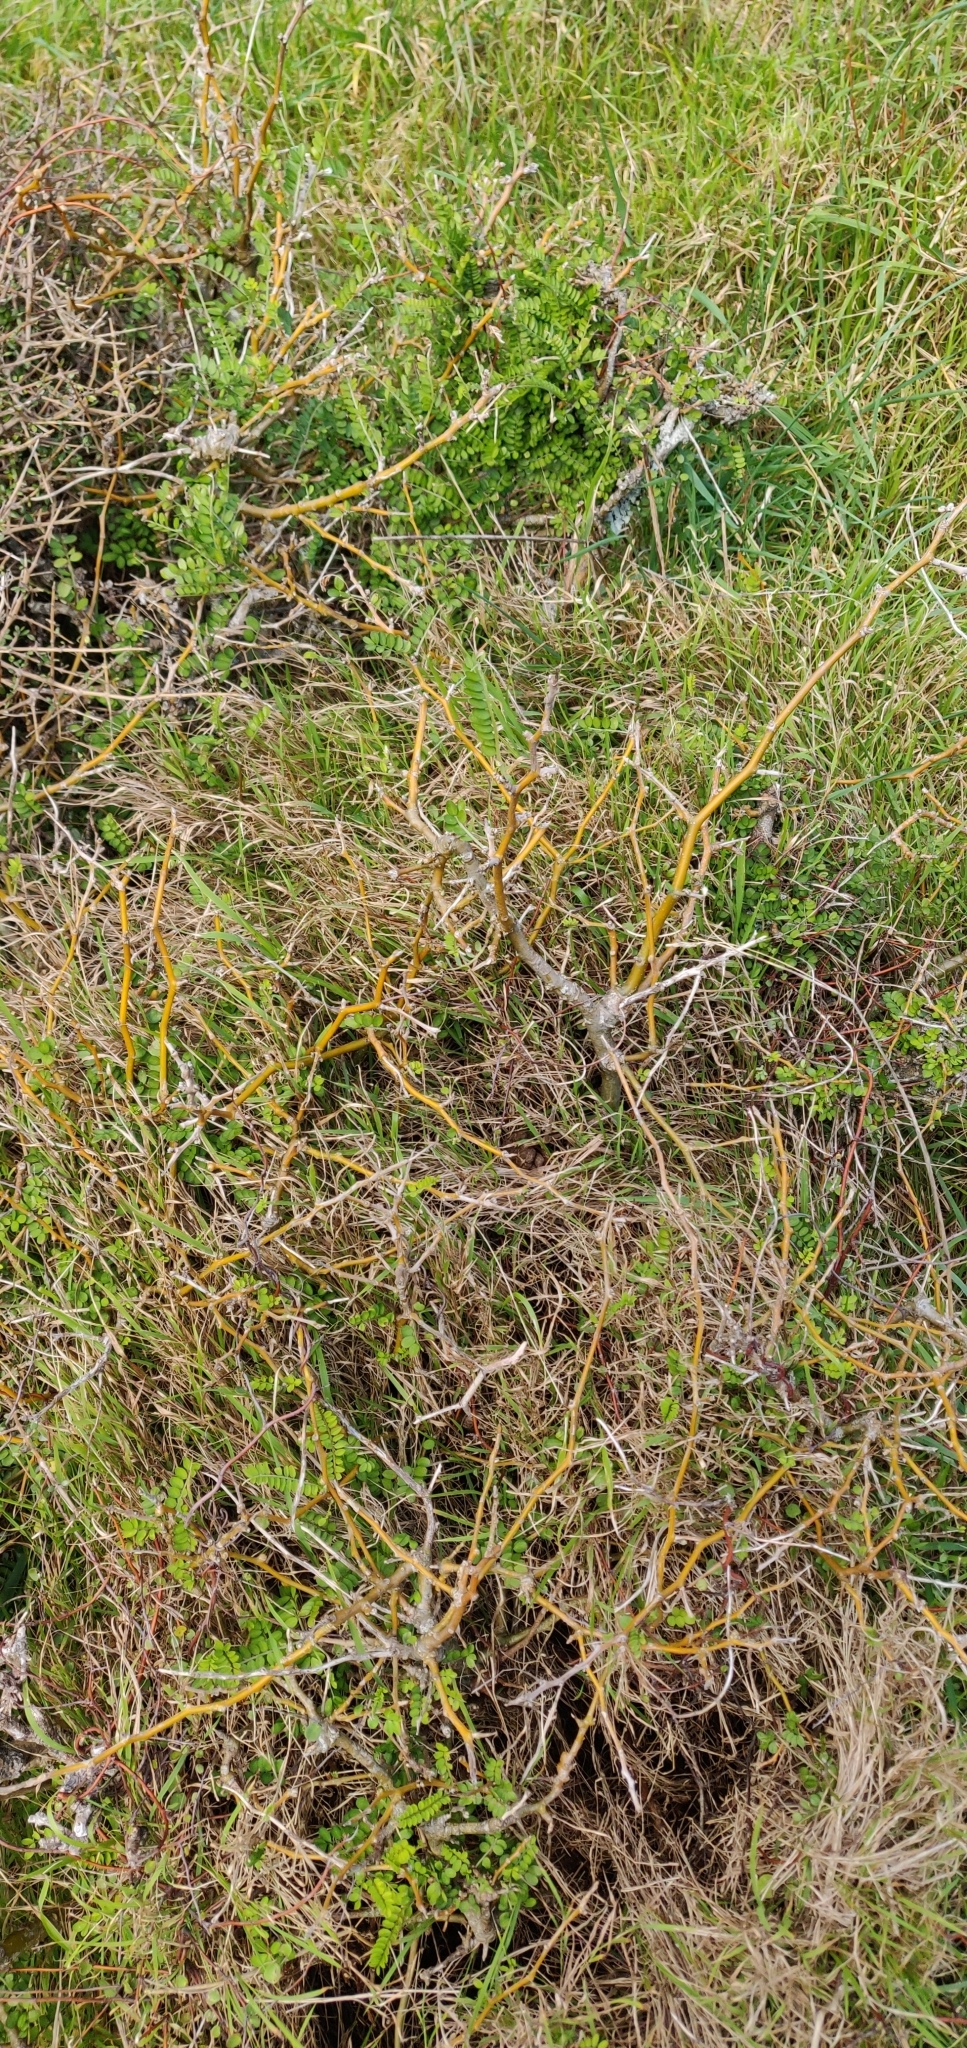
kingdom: Plantae
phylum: Tracheophyta
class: Magnoliopsida
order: Fabales
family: Fabaceae
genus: Sophora
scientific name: Sophora molloyi
